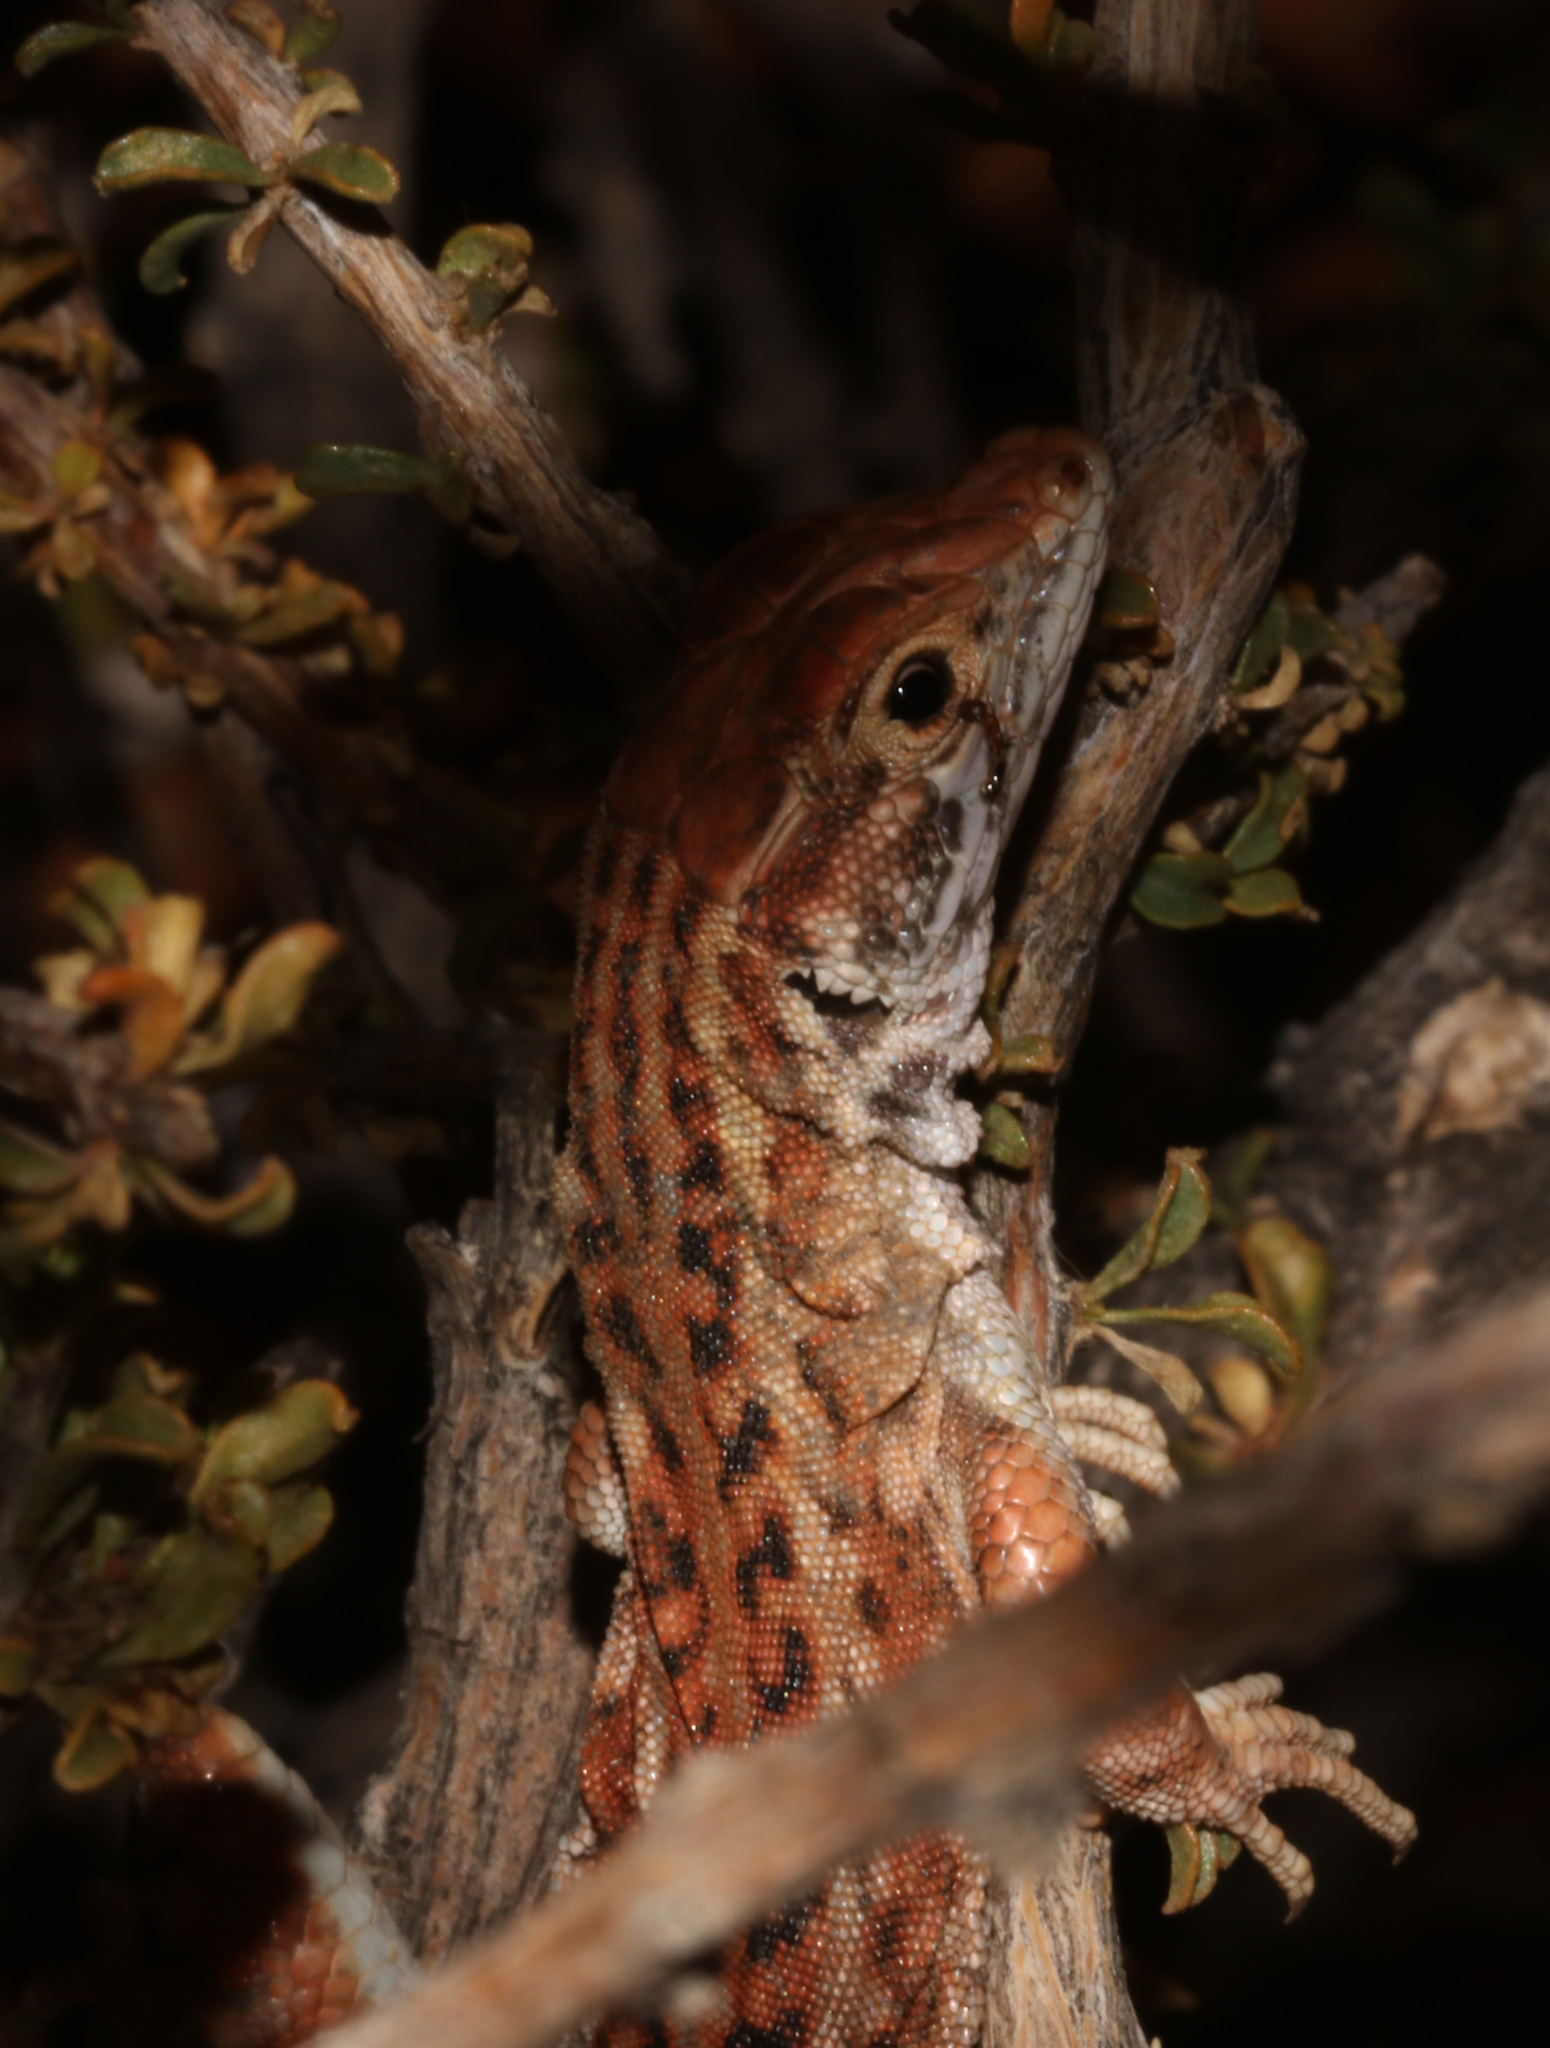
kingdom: Animalia
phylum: Chordata
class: Squamata
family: Lacertidae
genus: Meroles
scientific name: Meroles suborbitalis
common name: Spotted sand lizard
